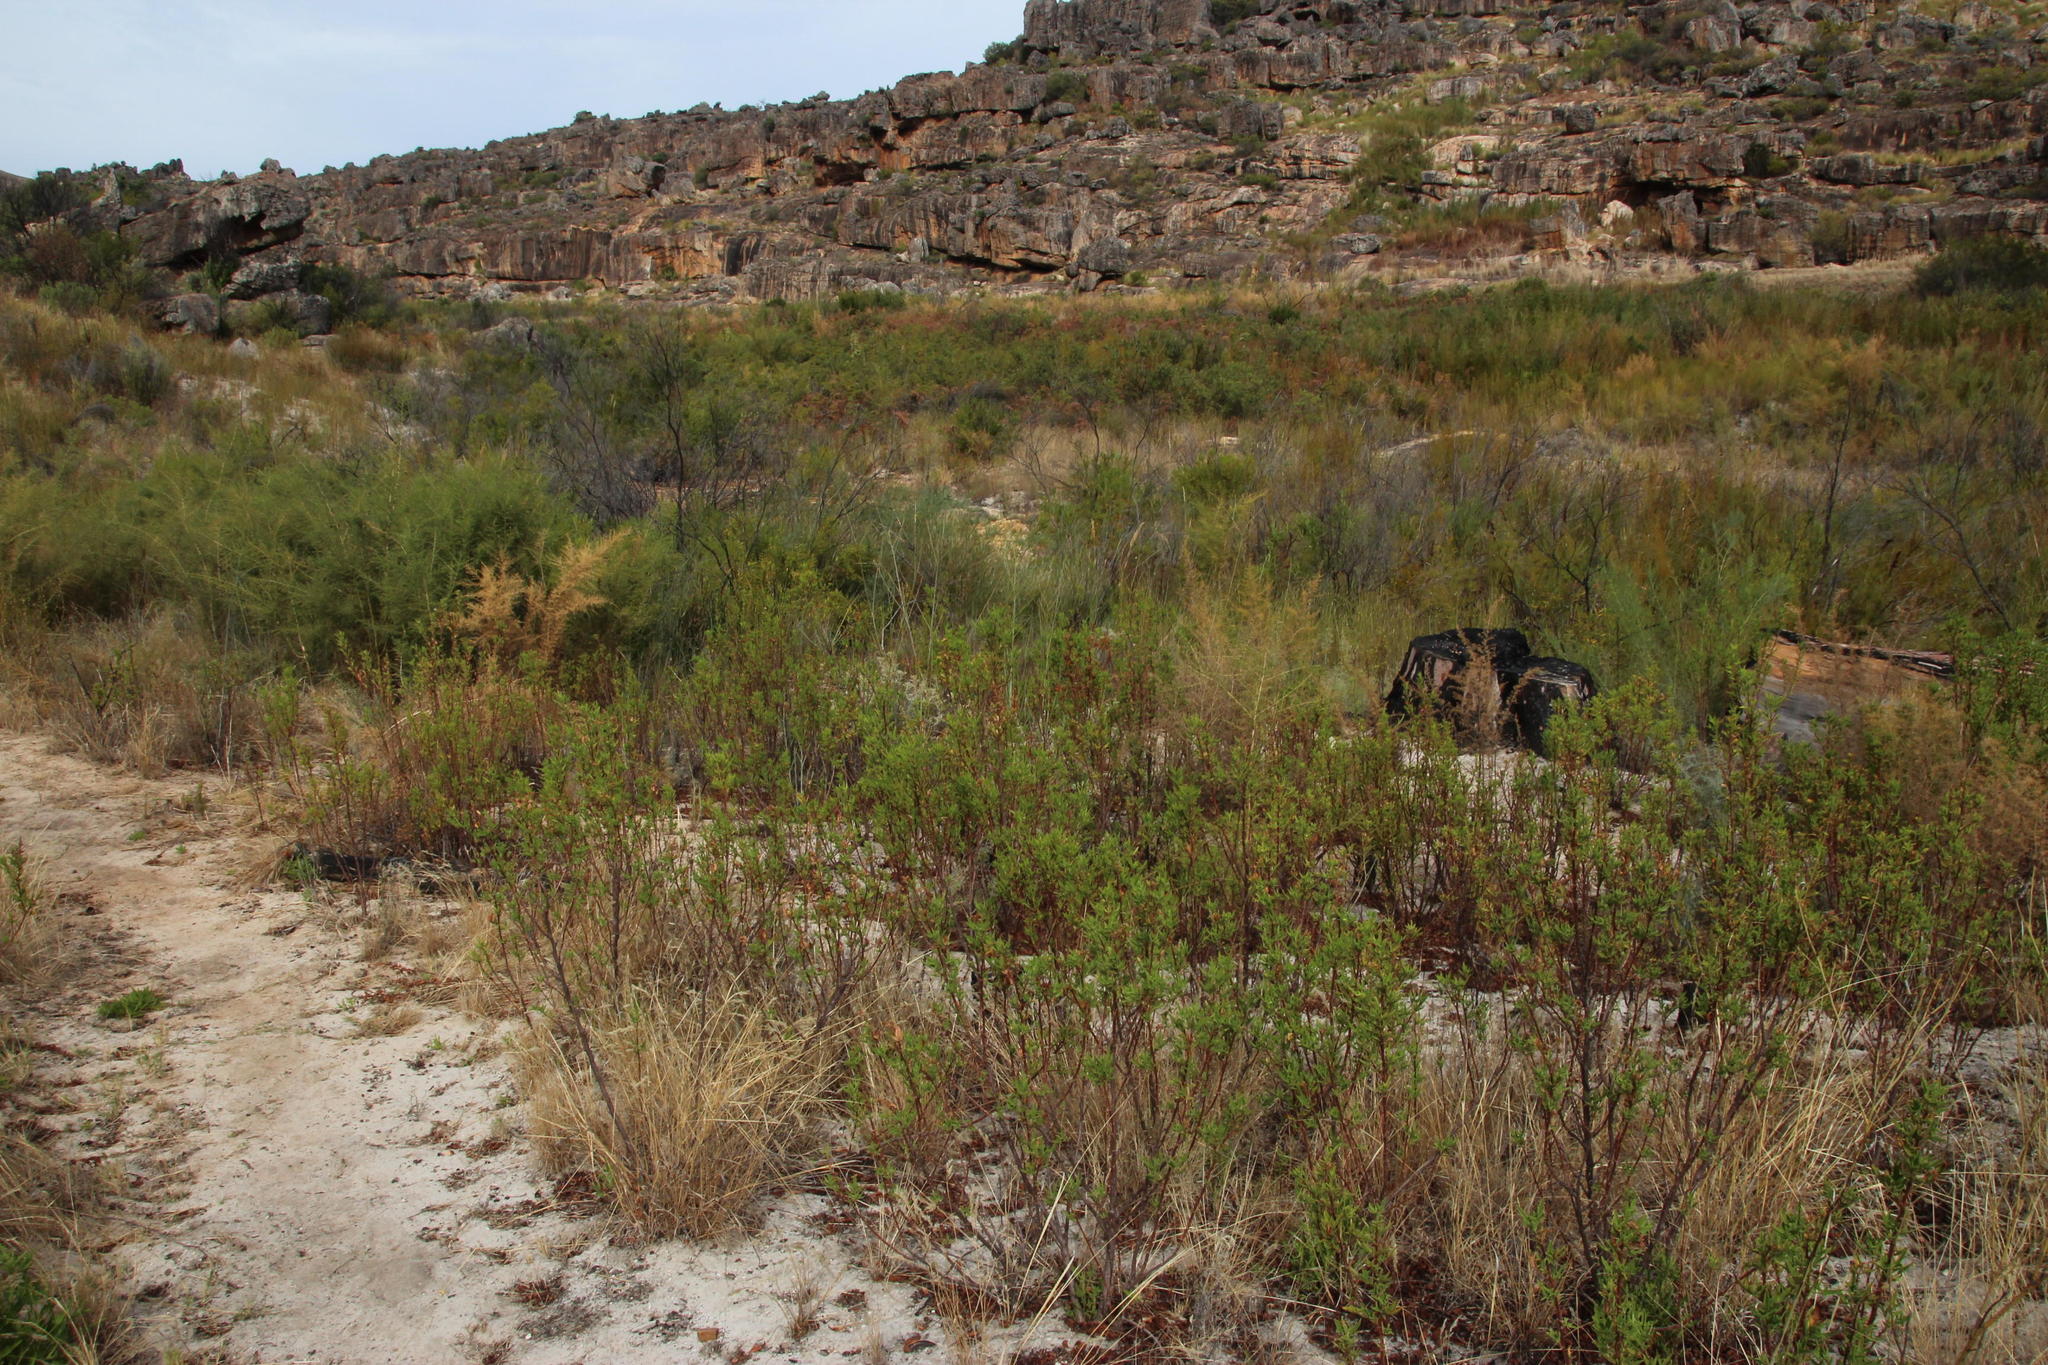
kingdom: Plantae
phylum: Tracheophyta
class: Magnoliopsida
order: Geraniales
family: Geraniaceae
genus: Pelargonium
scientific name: Pelargonium scabrum
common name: Apricot geranium
